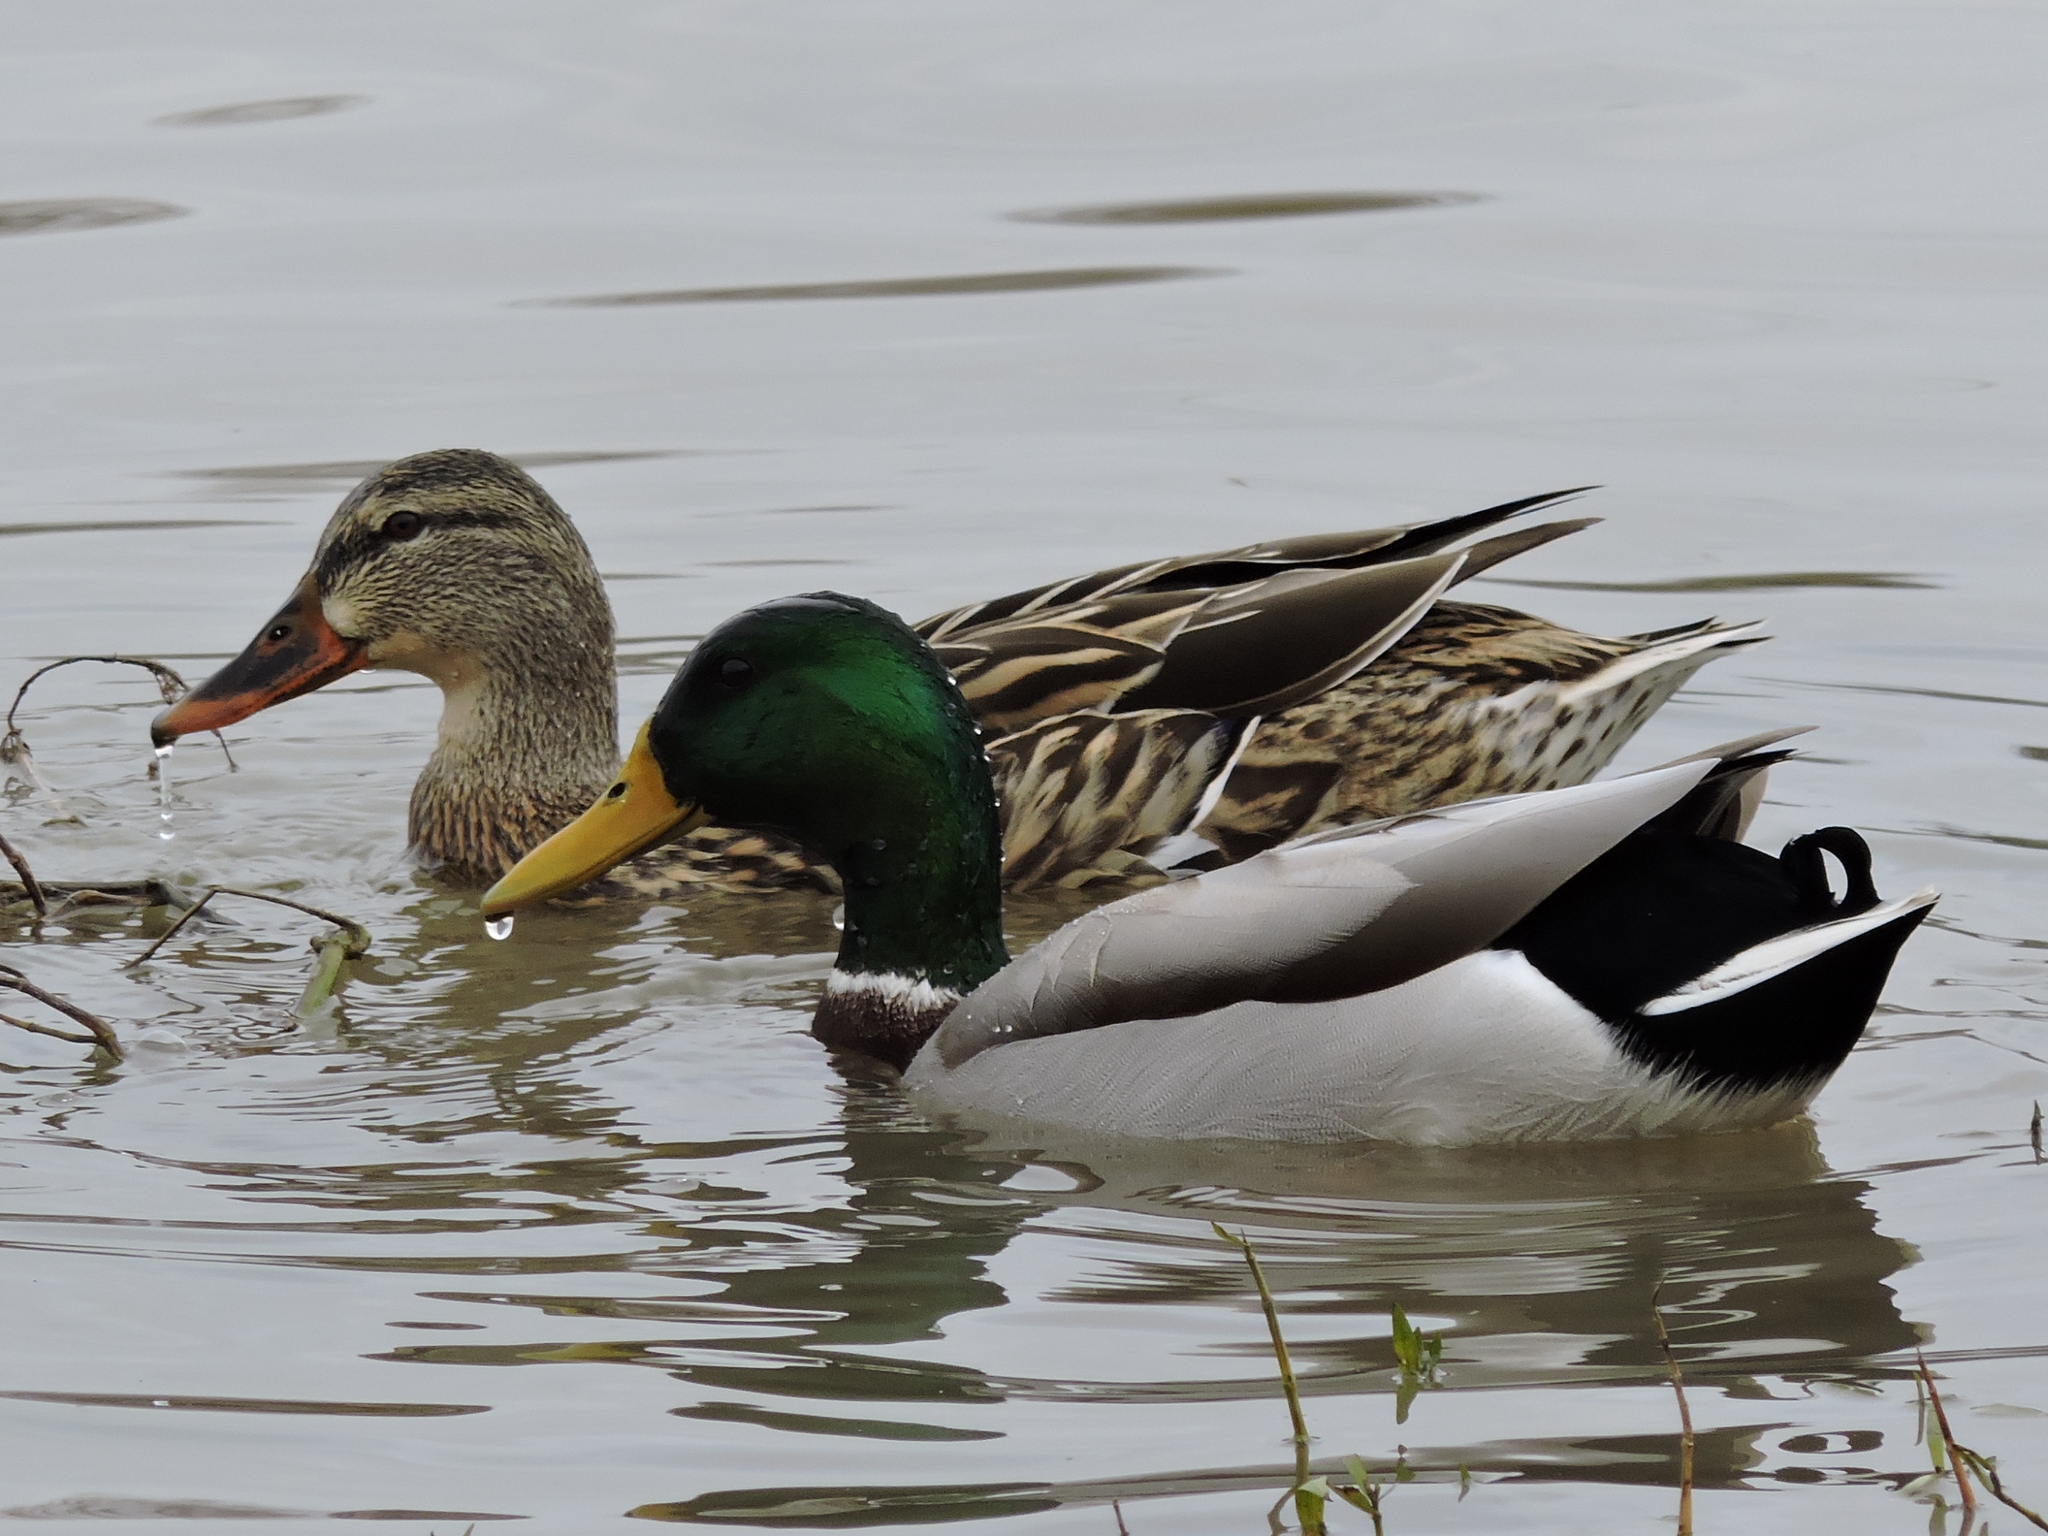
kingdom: Animalia
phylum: Chordata
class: Aves
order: Anseriformes
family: Anatidae
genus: Anas
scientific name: Anas platyrhynchos
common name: Mallard
